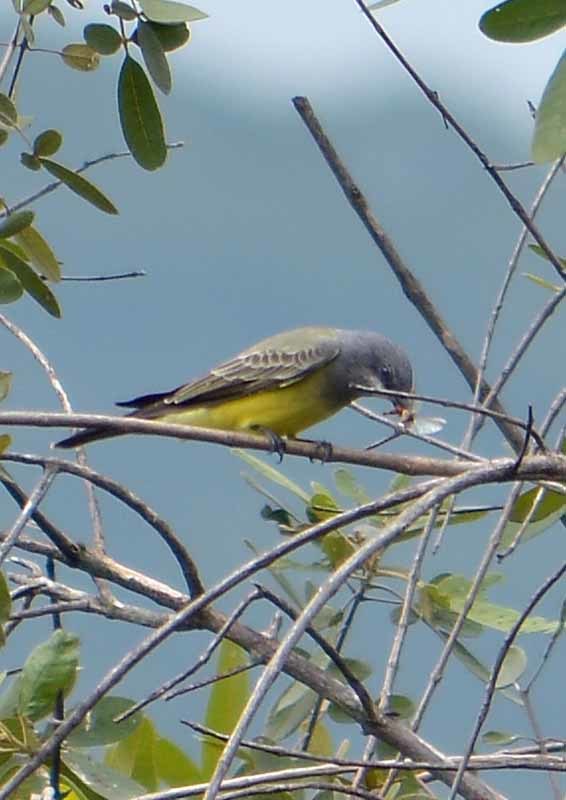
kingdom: Animalia
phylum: Chordata
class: Aves
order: Passeriformes
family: Tyrannidae
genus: Tyrannus
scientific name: Tyrannus vociferans
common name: Cassin's kingbird
